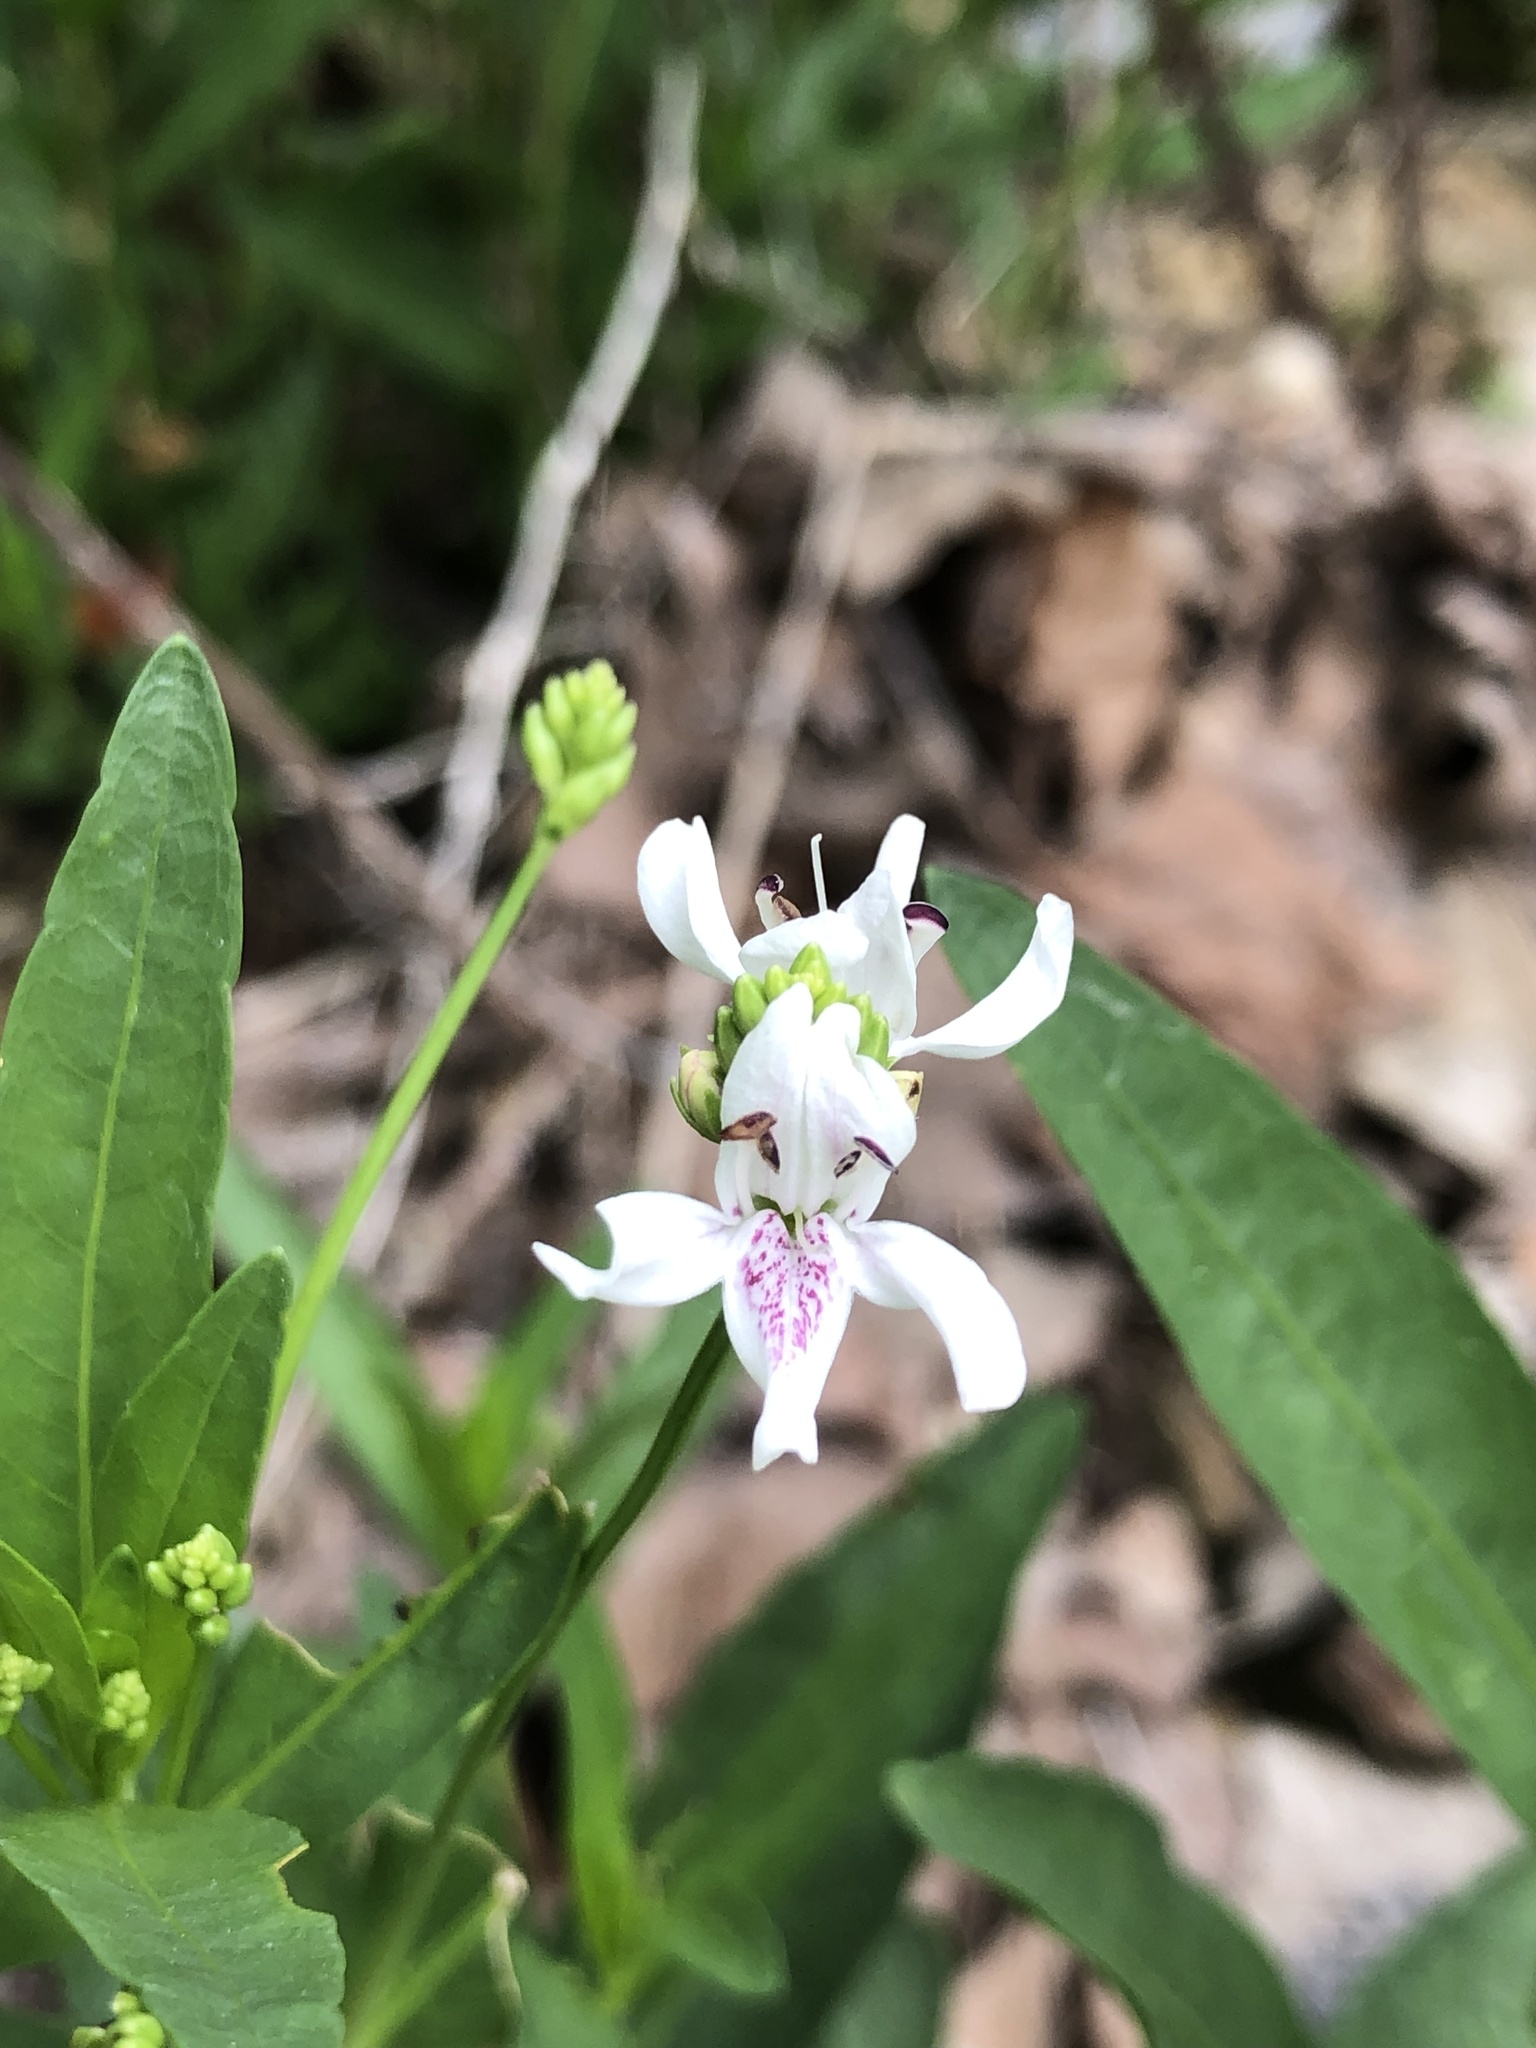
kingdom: Plantae
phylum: Tracheophyta
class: Magnoliopsida
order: Lamiales
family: Acanthaceae
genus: Dianthera
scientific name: Dianthera americana
